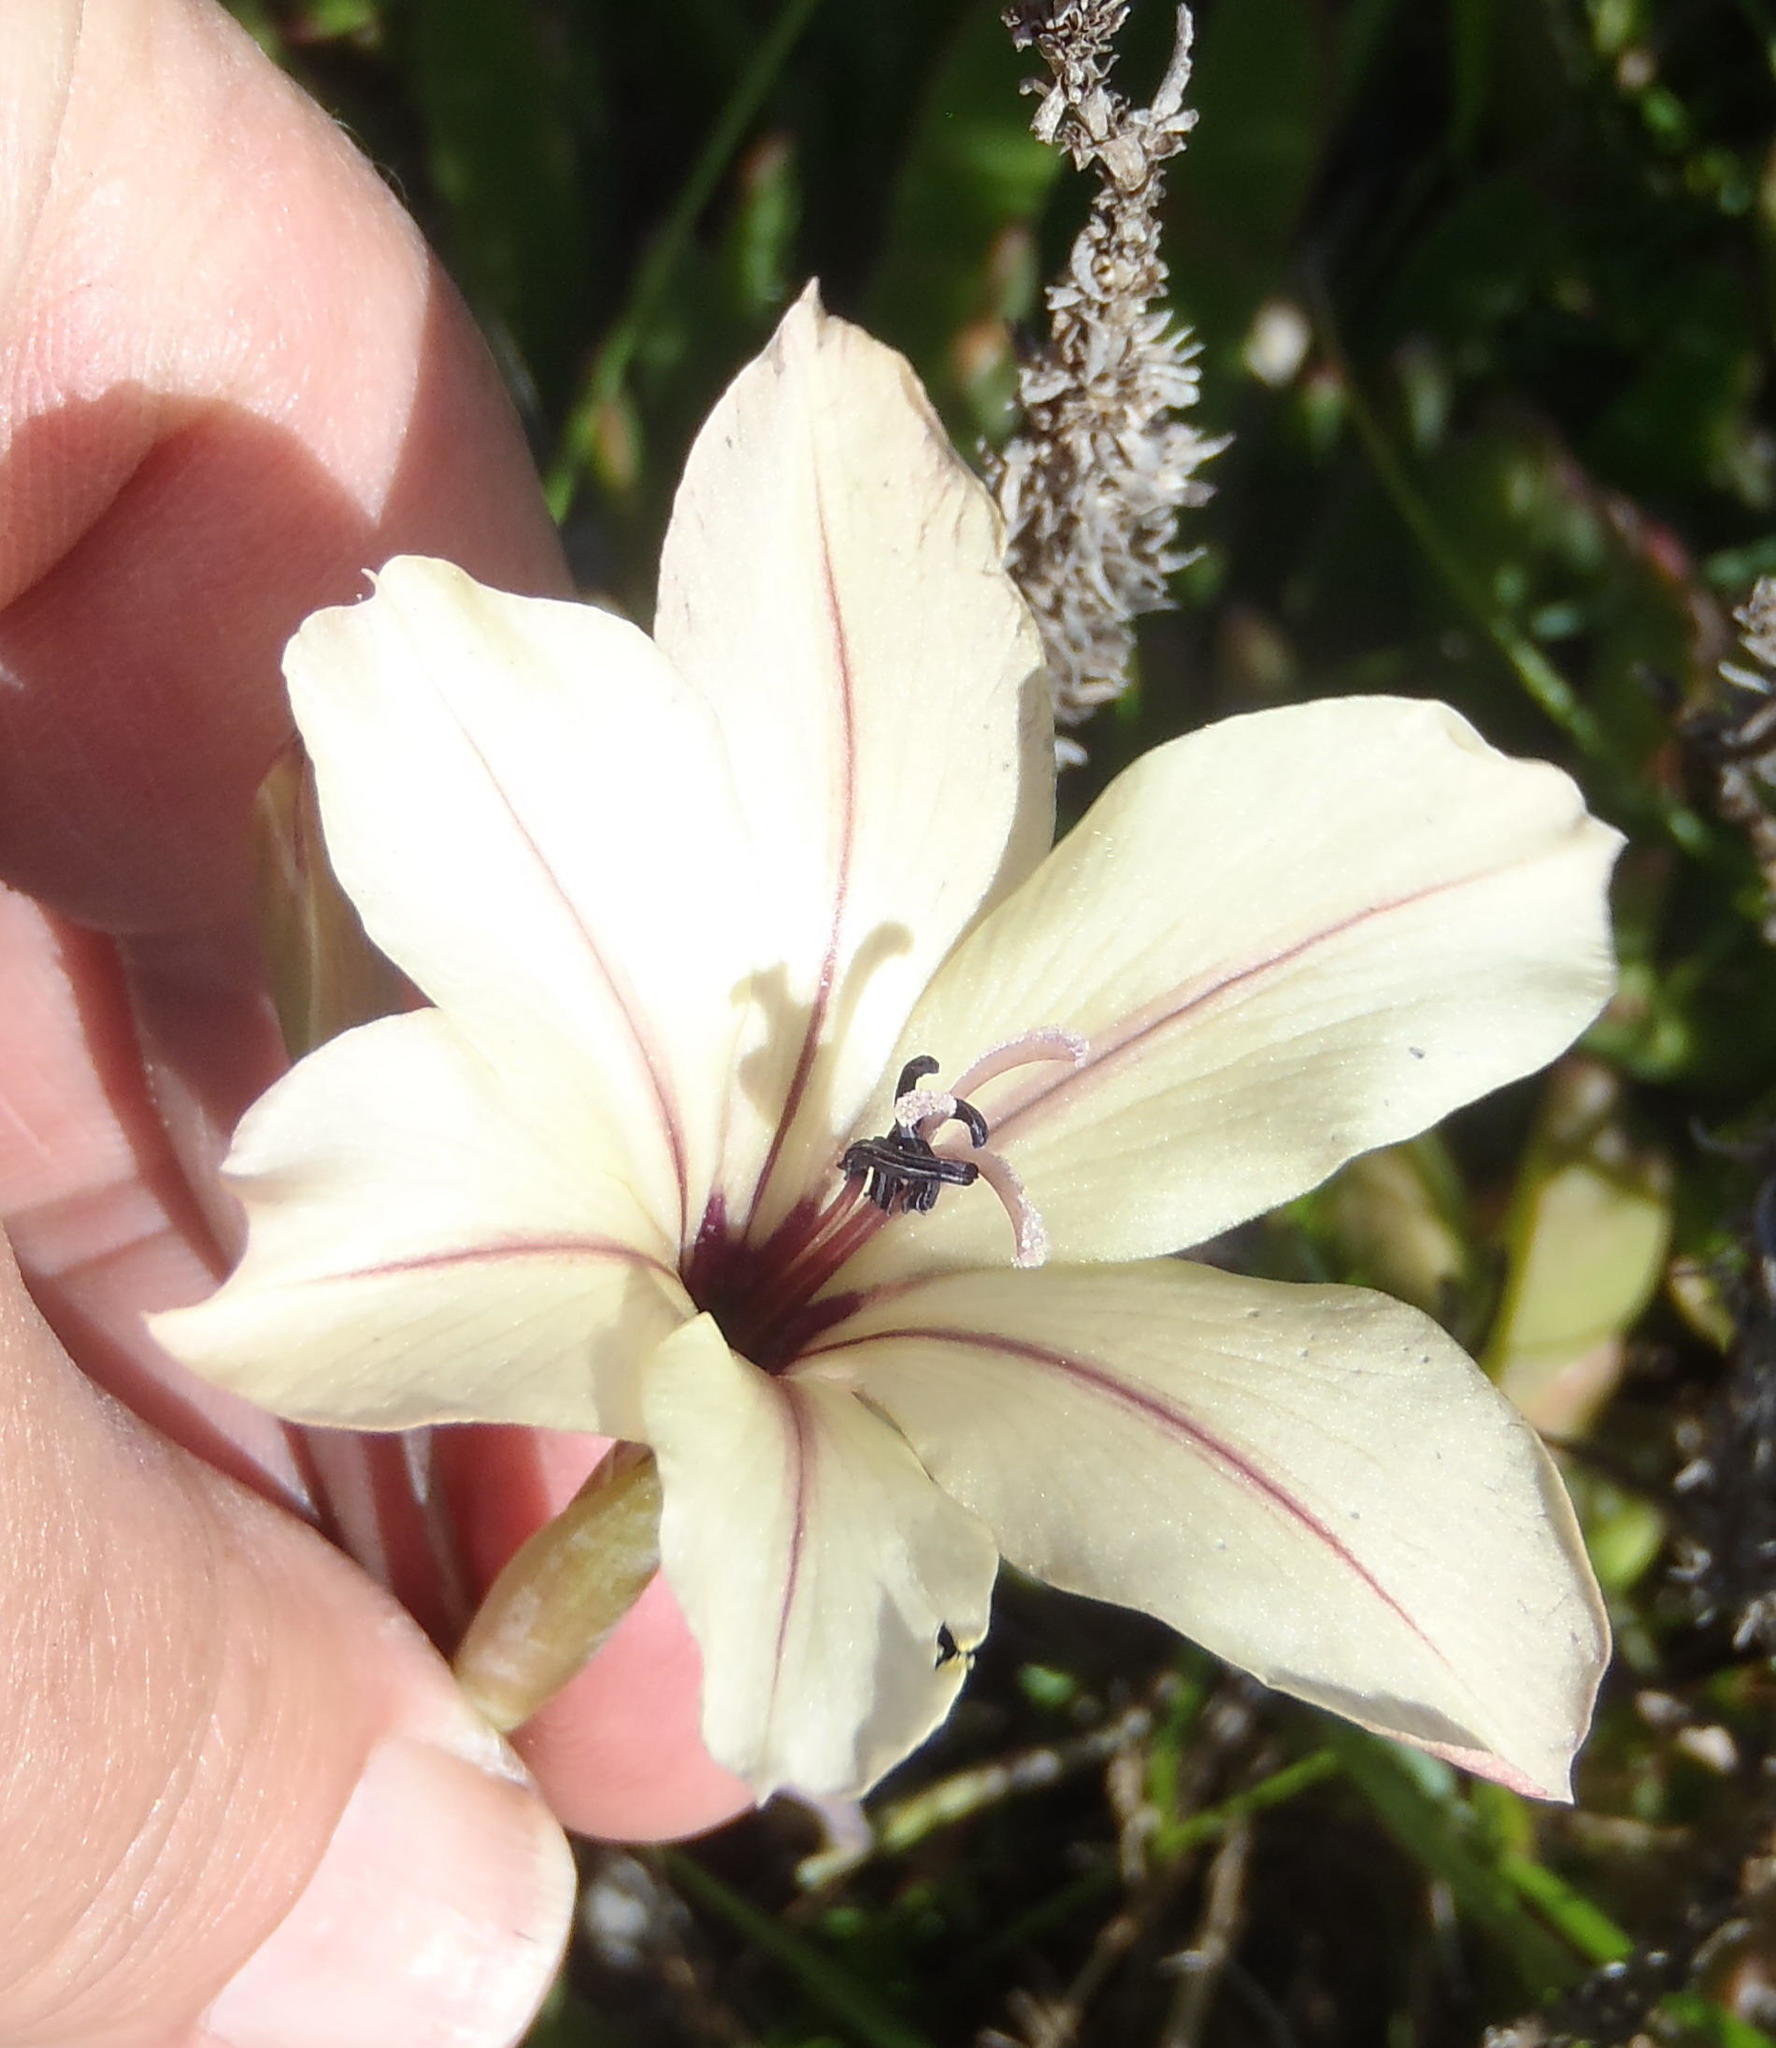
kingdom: Plantae
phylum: Tracheophyta
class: Liliopsida
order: Asparagales
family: Iridaceae
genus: Gladiolus
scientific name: Gladiolus floribundus
